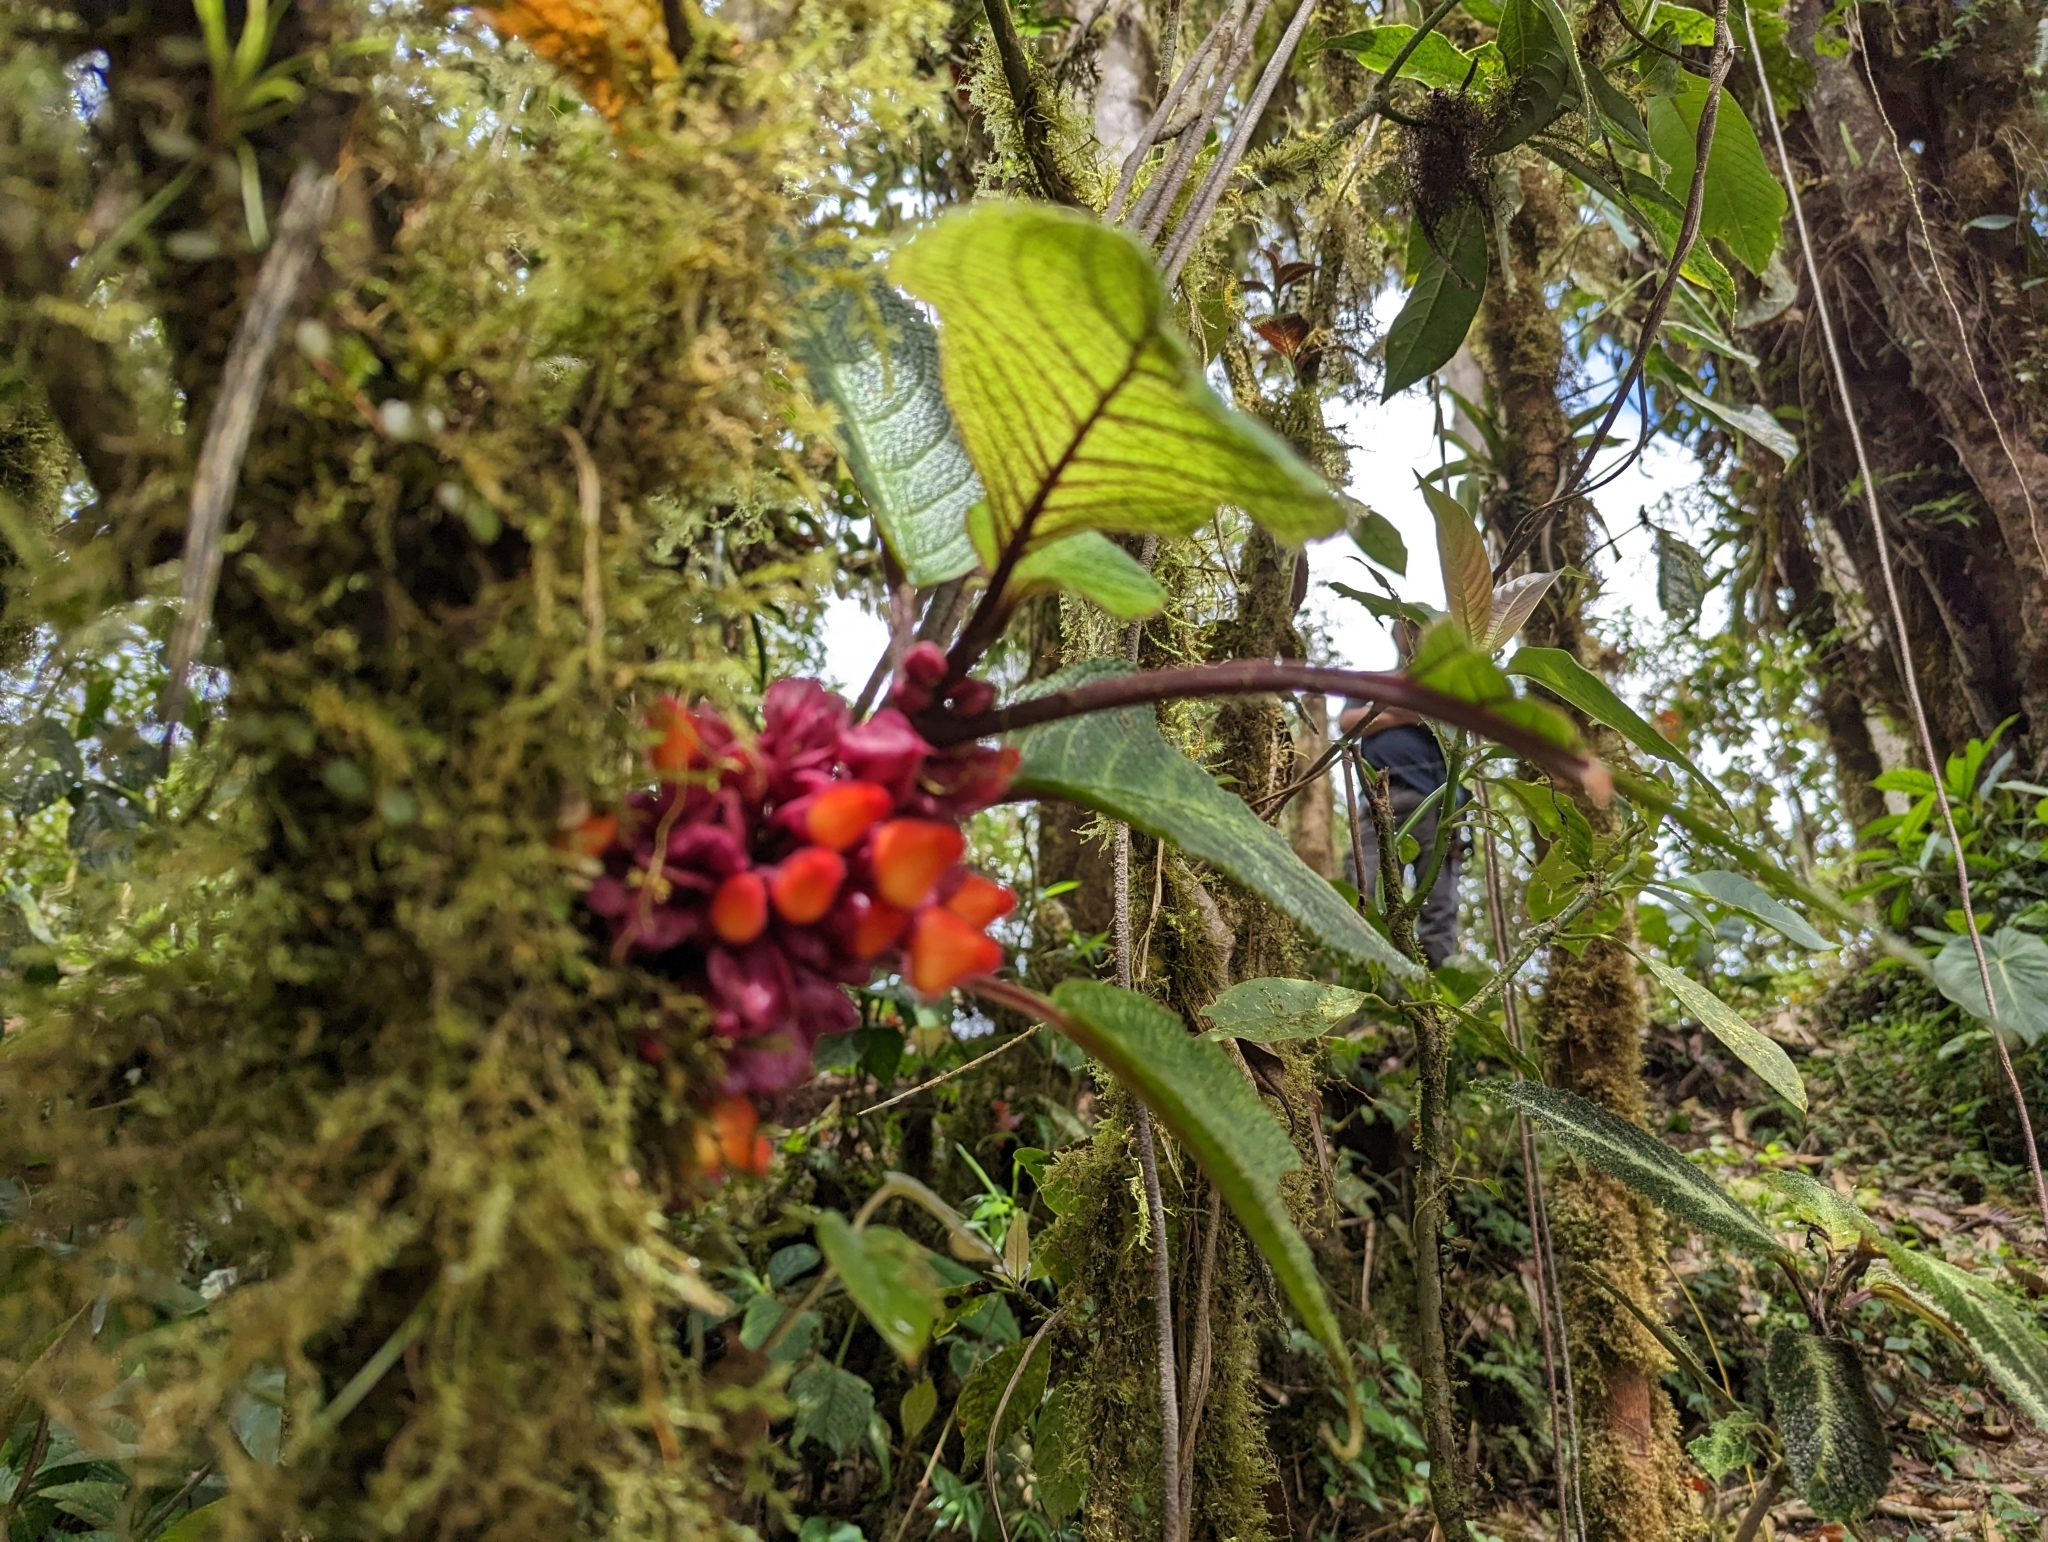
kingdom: Plantae
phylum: Tracheophyta
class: Magnoliopsida
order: Lamiales
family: Gesneriaceae
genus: Drymonia
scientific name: Drymonia collegarum
